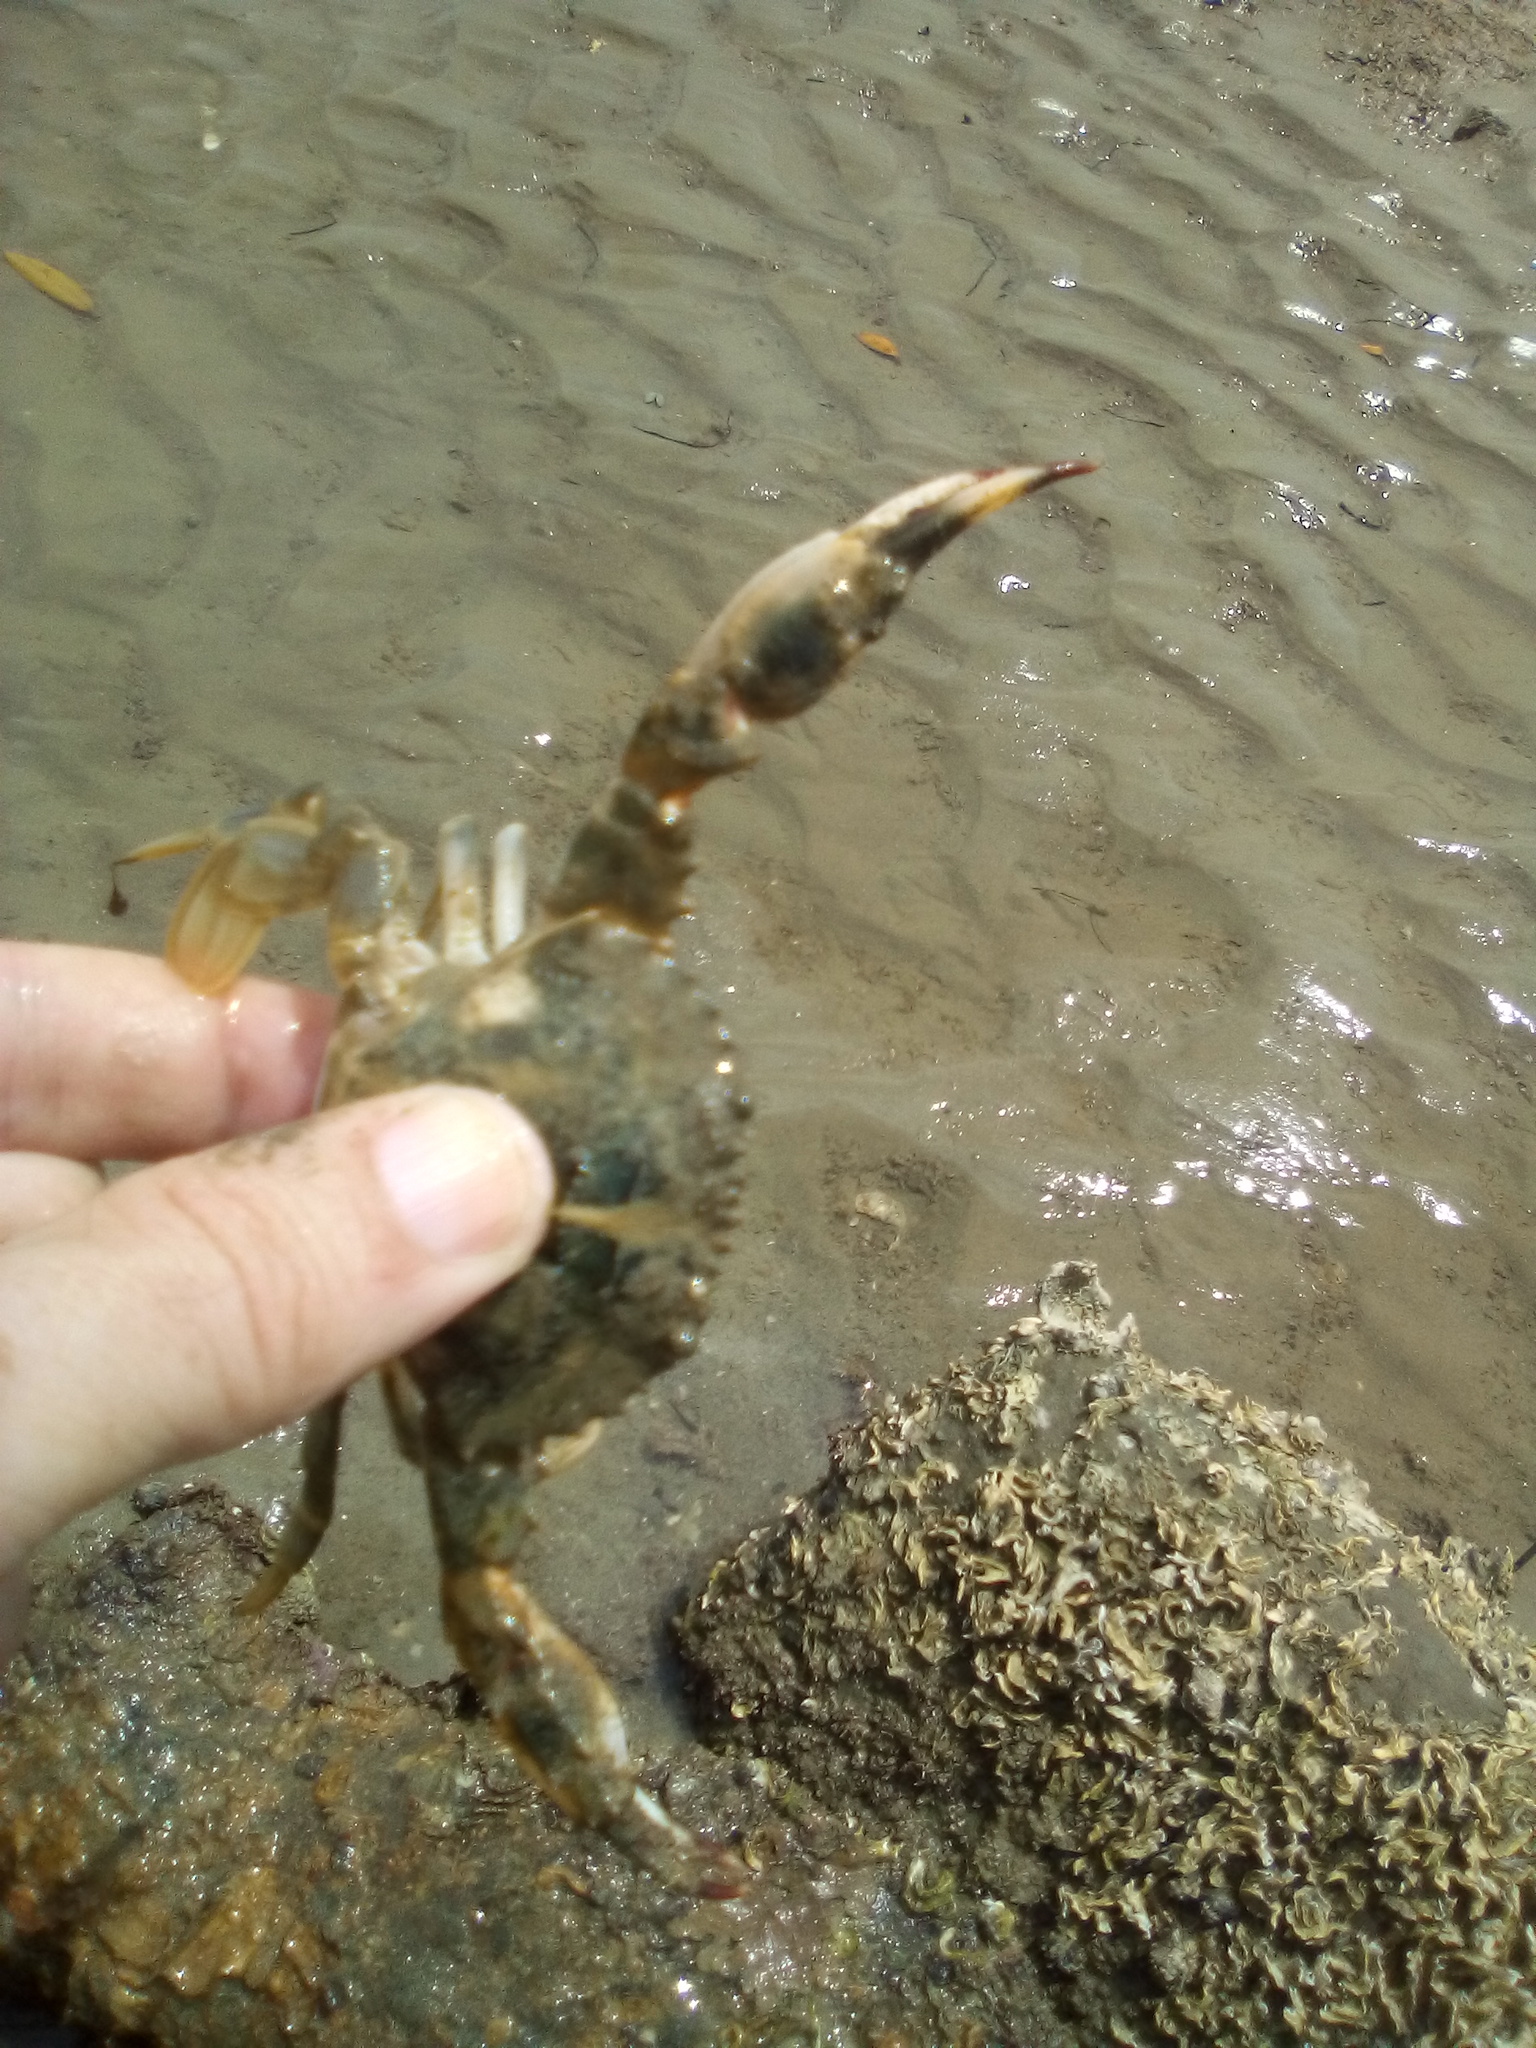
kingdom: Animalia
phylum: Arthropoda
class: Malacostraca
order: Decapoda
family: Portunidae
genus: Charybdis
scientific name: Charybdis japonica
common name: Asian paddle crab
